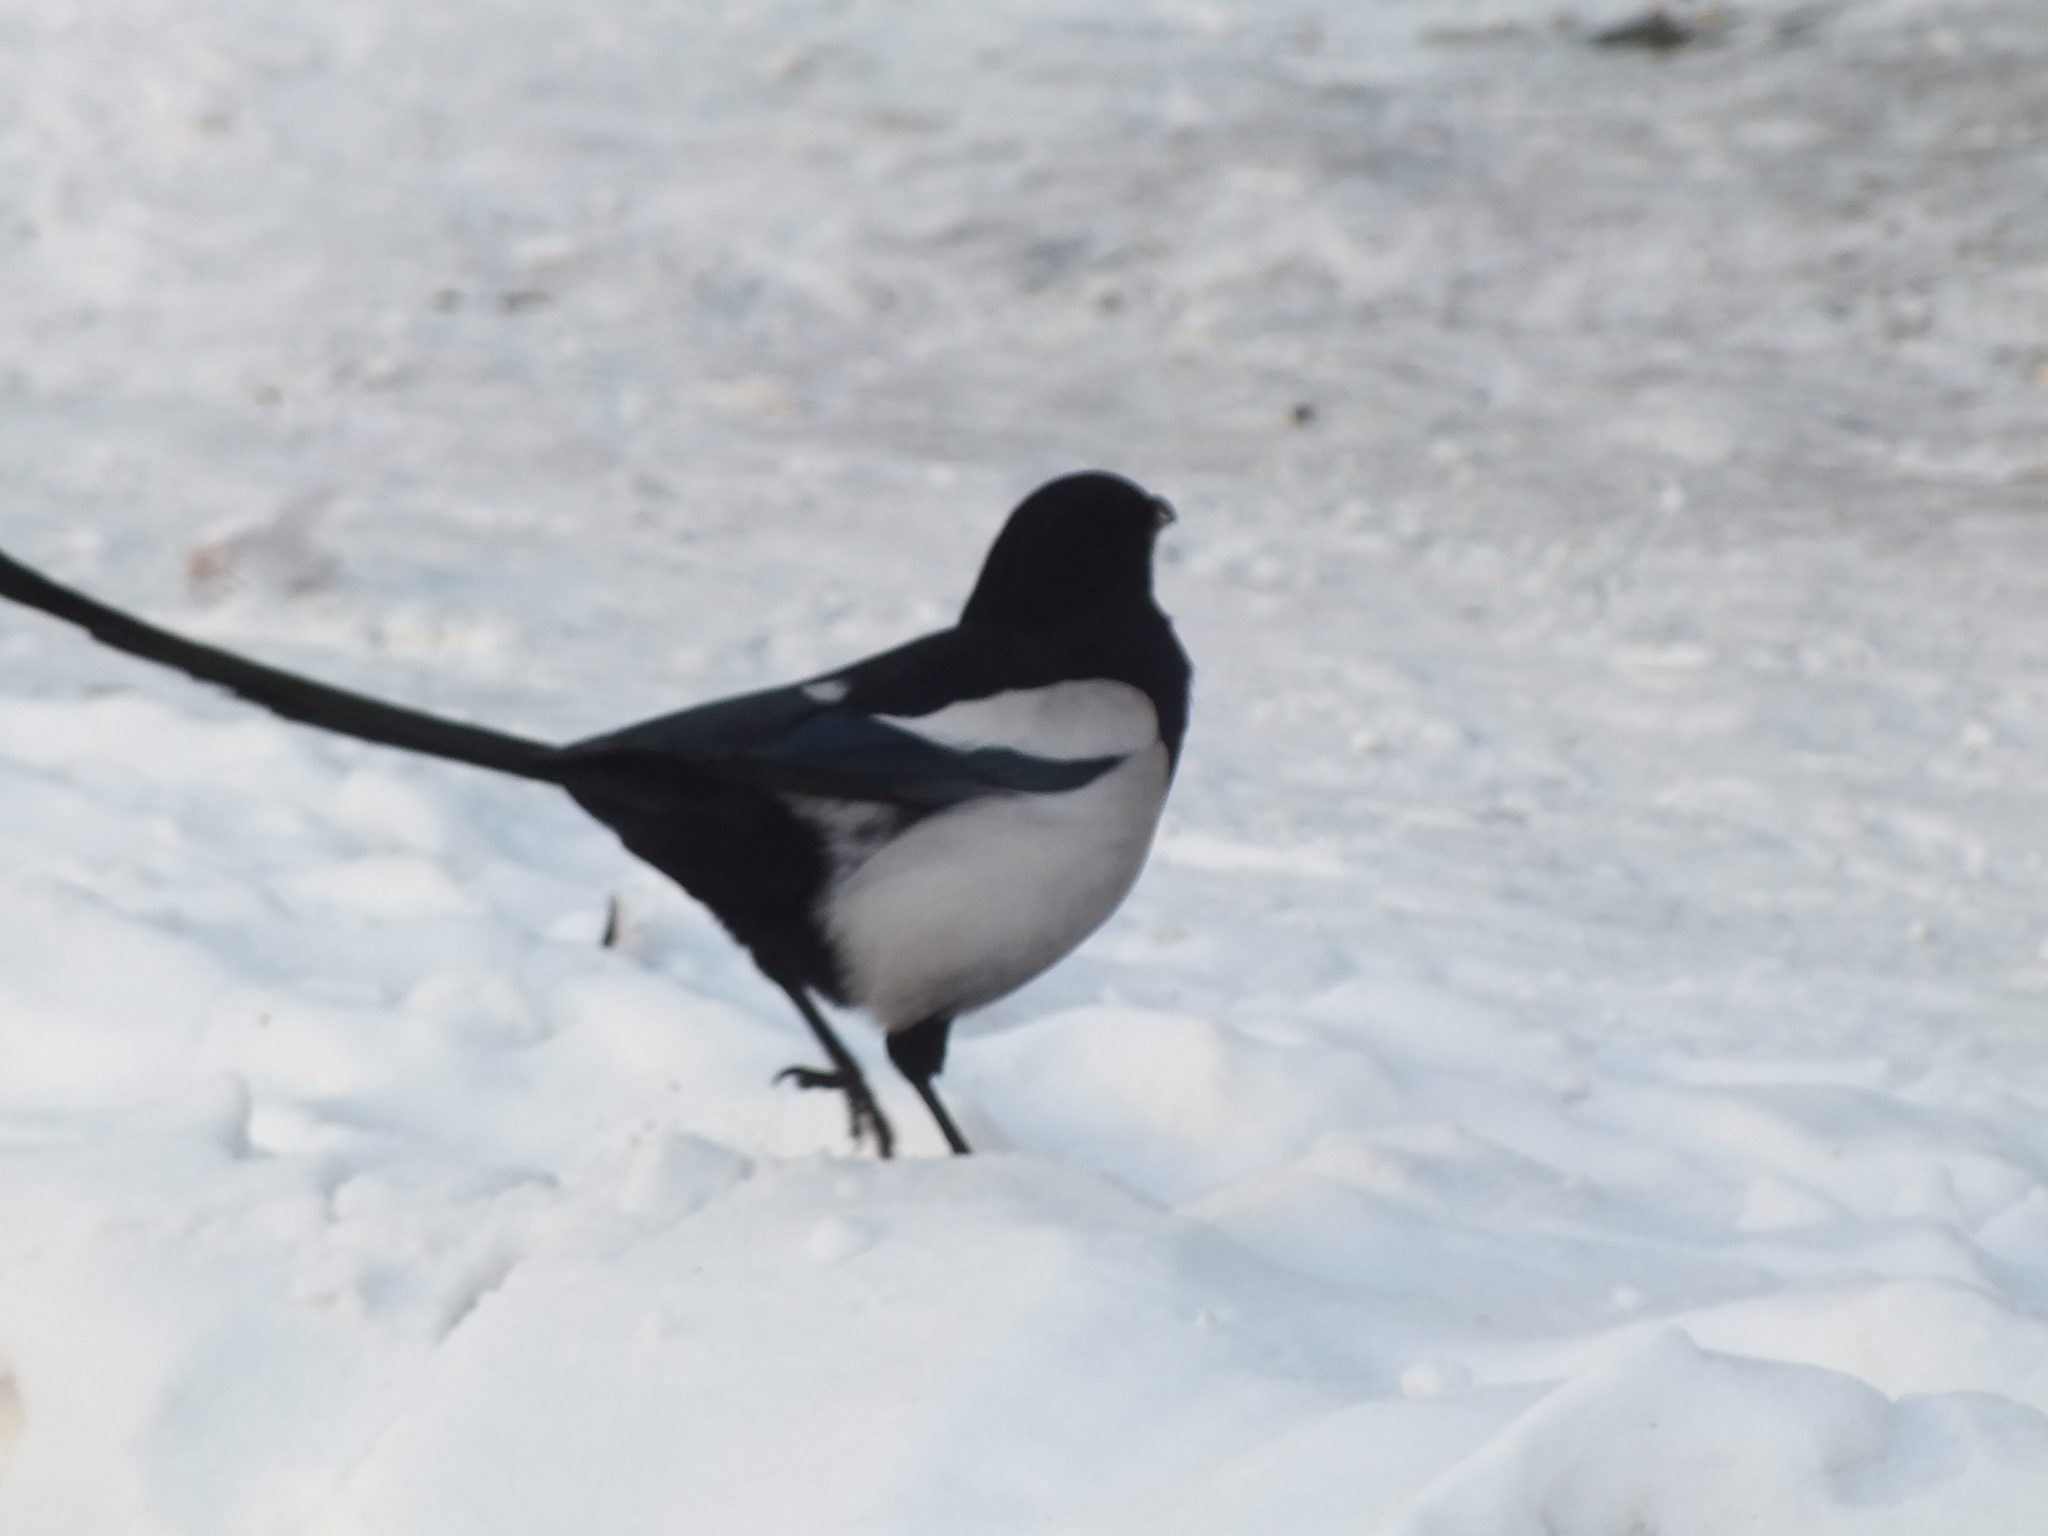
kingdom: Animalia
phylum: Chordata
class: Aves
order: Passeriformes
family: Corvidae
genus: Pica
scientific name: Pica pica
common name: Eurasian magpie
